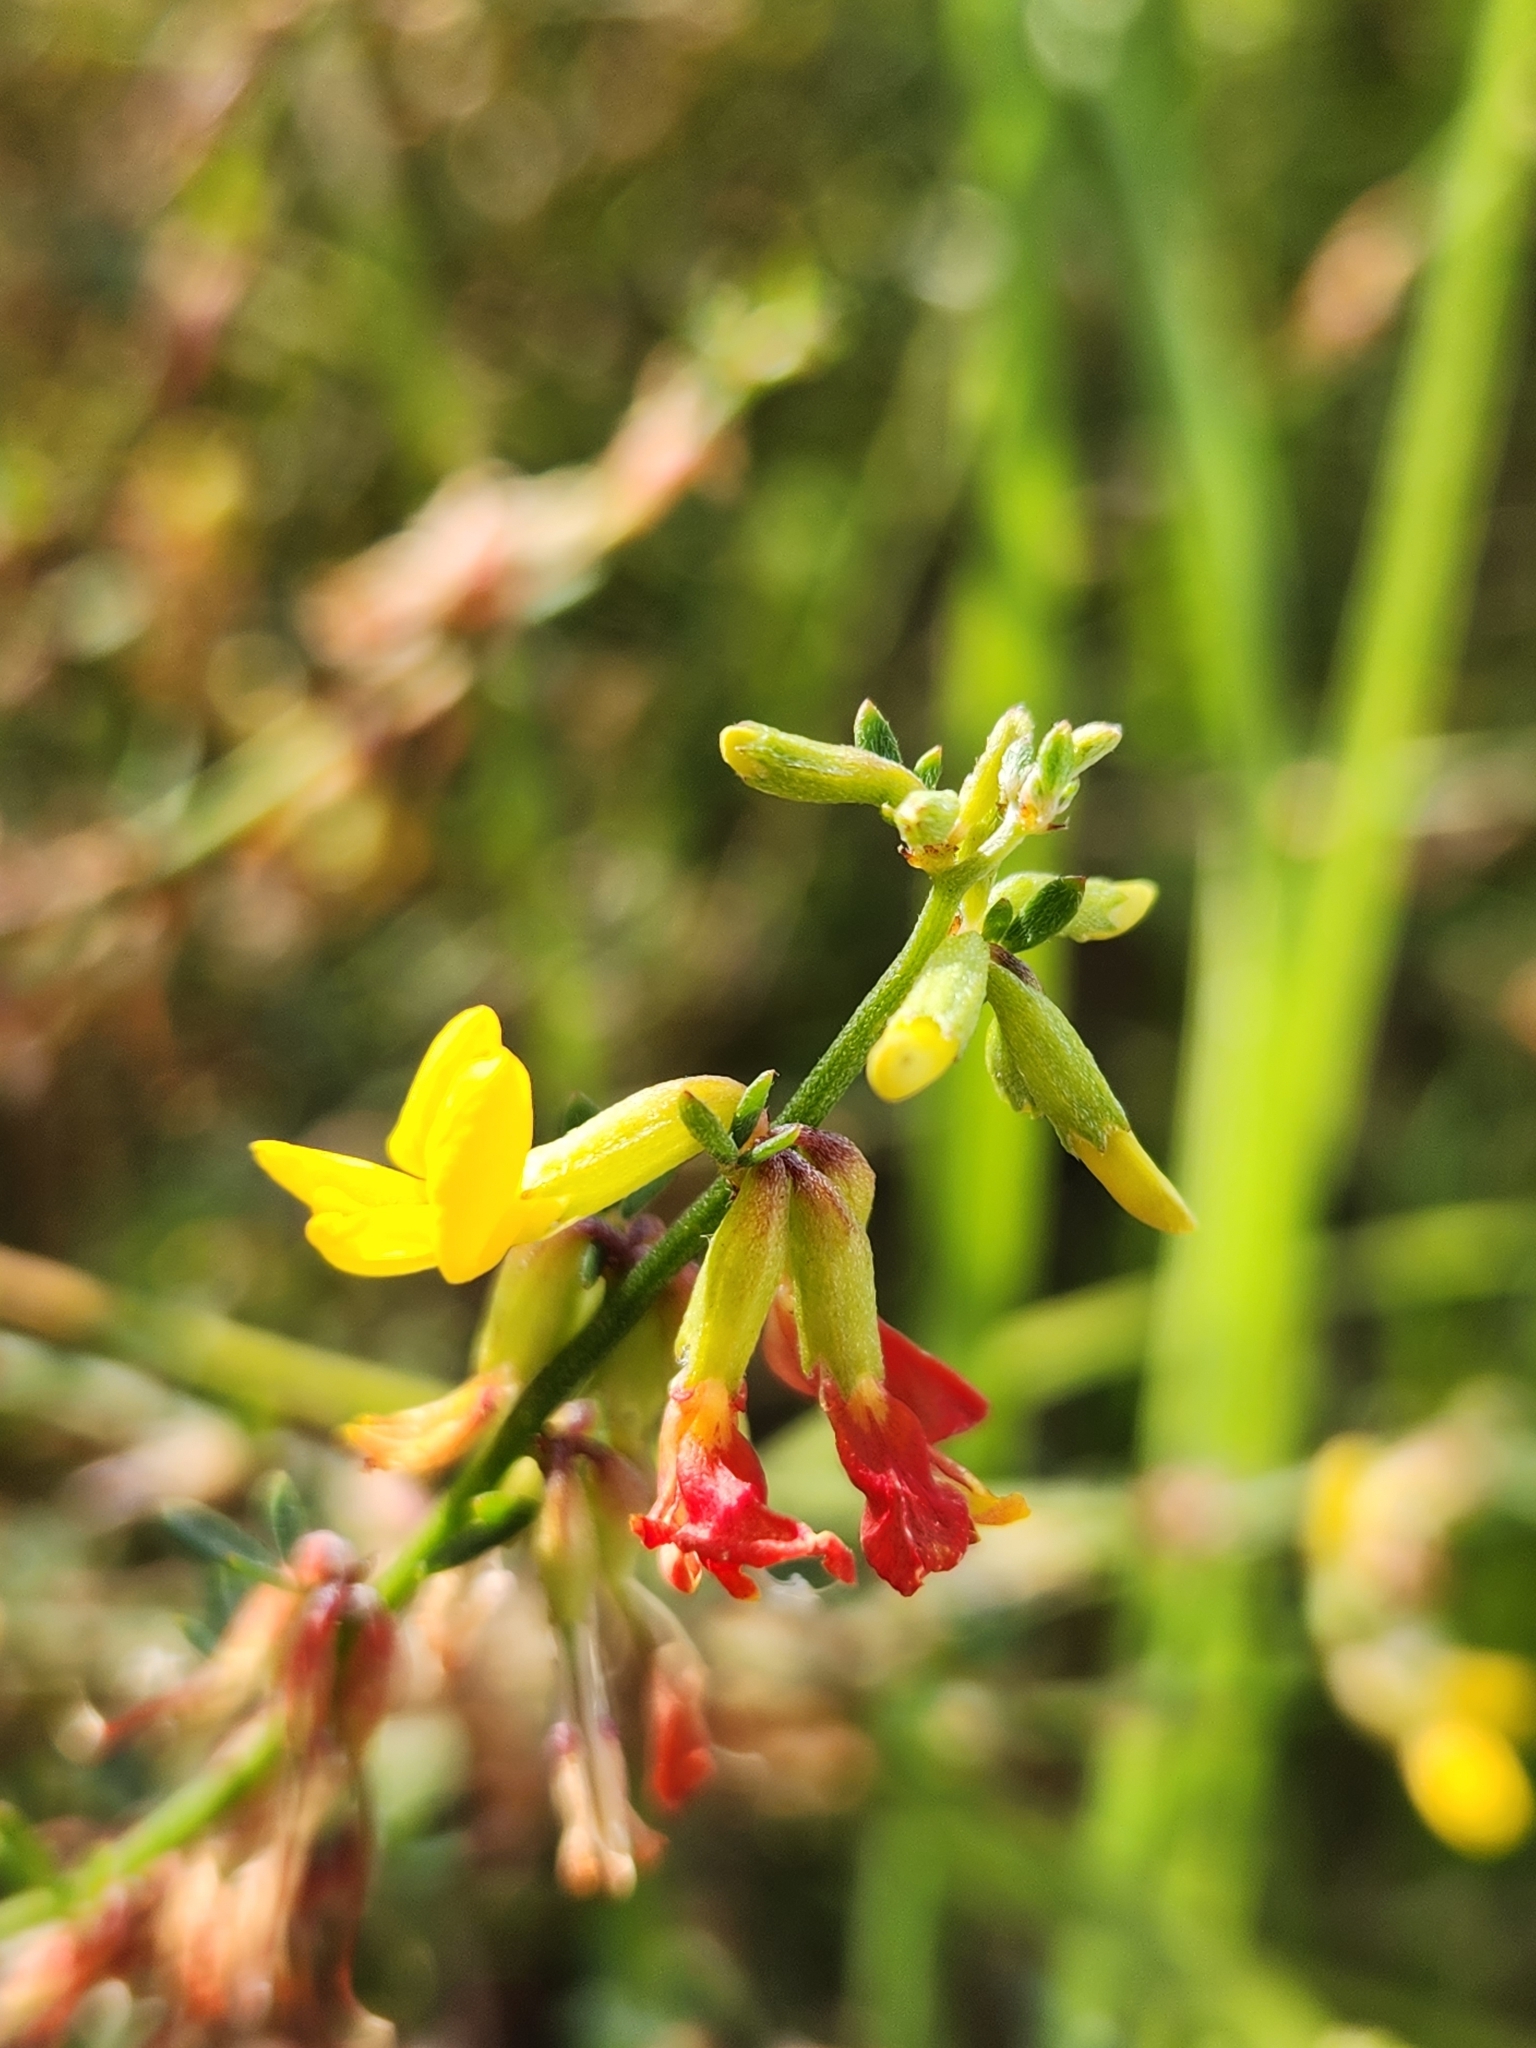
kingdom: Plantae
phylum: Tracheophyta
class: Magnoliopsida
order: Fabales
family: Fabaceae
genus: Acmispon
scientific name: Acmispon glaber
